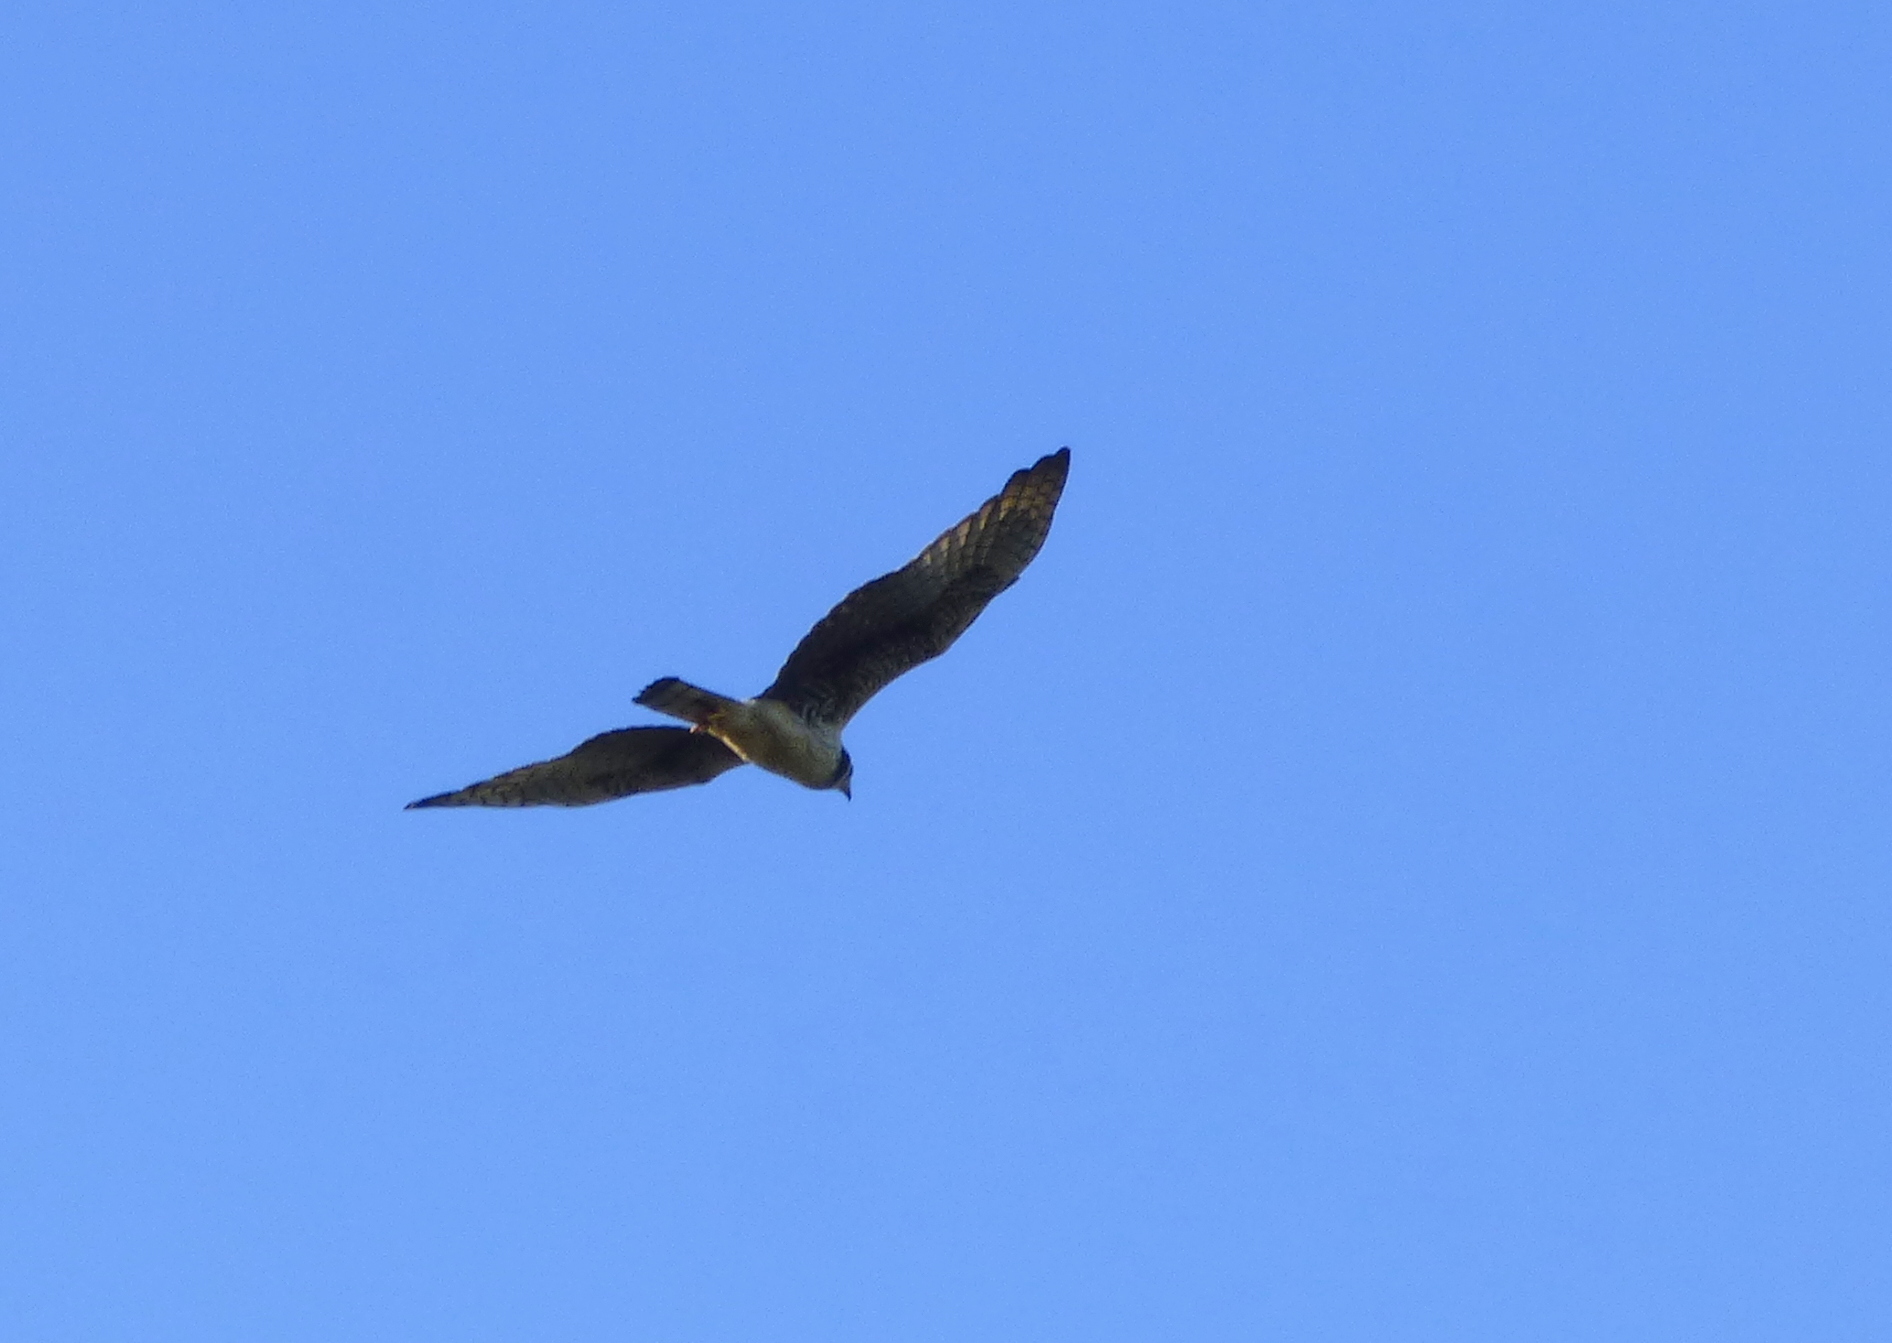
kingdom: Animalia
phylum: Chordata
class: Aves
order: Accipitriformes
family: Accipitridae
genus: Circus
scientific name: Circus buffoni
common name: Long-winged harrier
